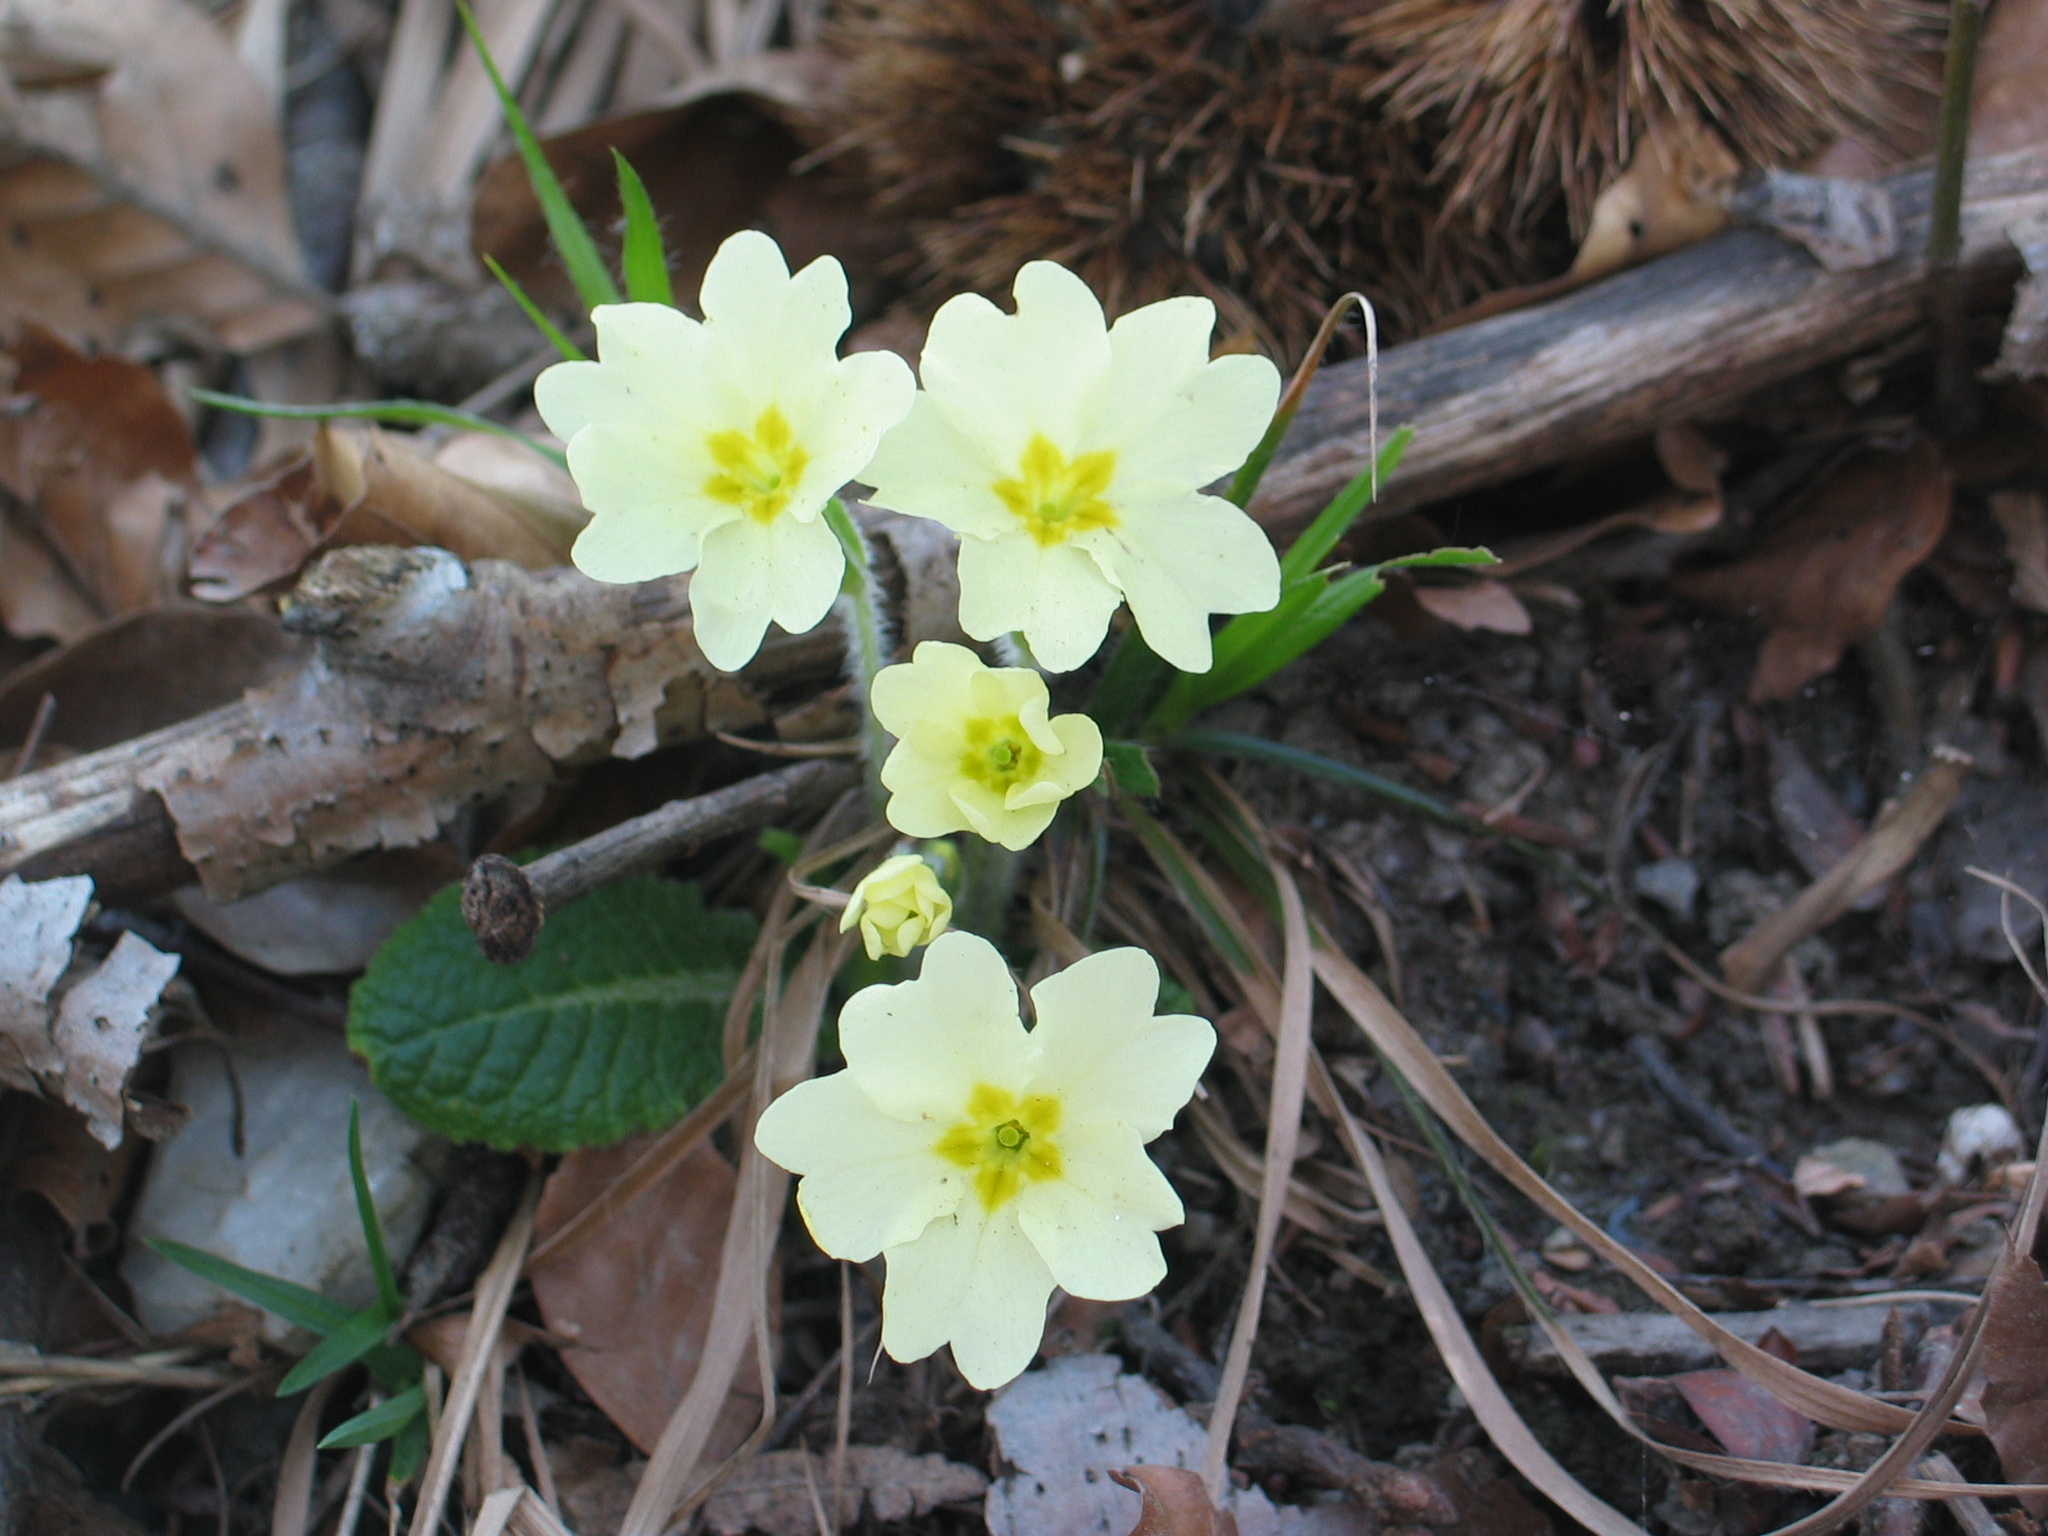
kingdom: Plantae
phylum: Tracheophyta
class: Magnoliopsida
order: Ericales
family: Primulaceae
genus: Primula
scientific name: Primula vulgaris
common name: Primrose
